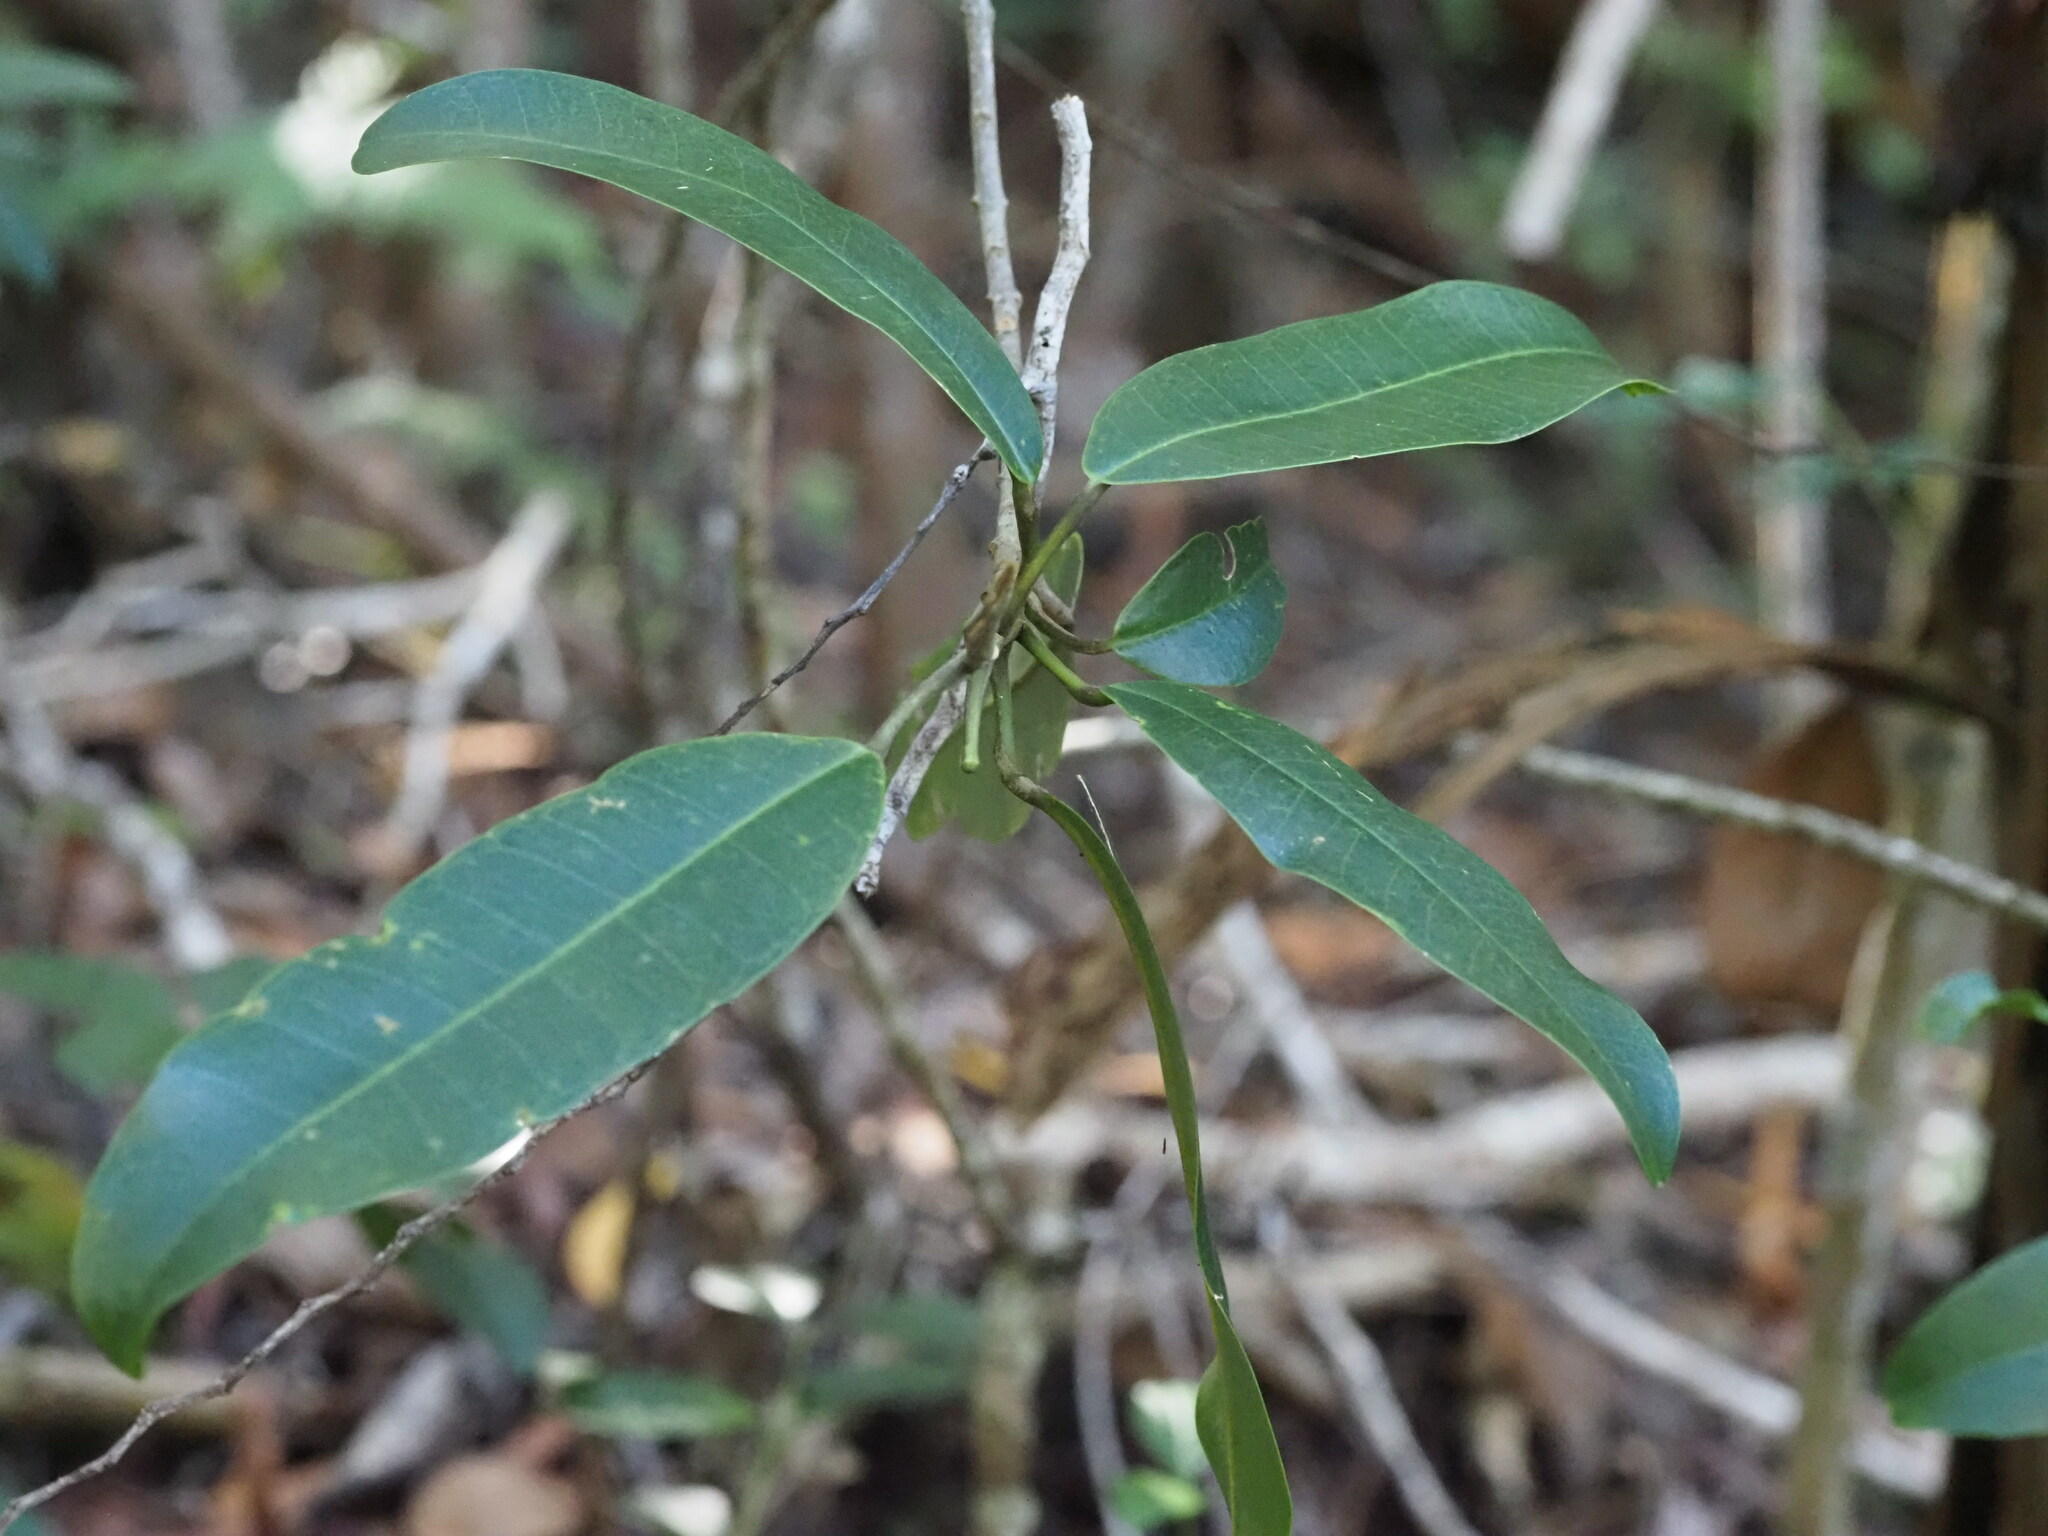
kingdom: Plantae
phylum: Tracheophyta
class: Magnoliopsida
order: Sapindales
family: Rutaceae
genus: Melicope
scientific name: Melicope anisata
